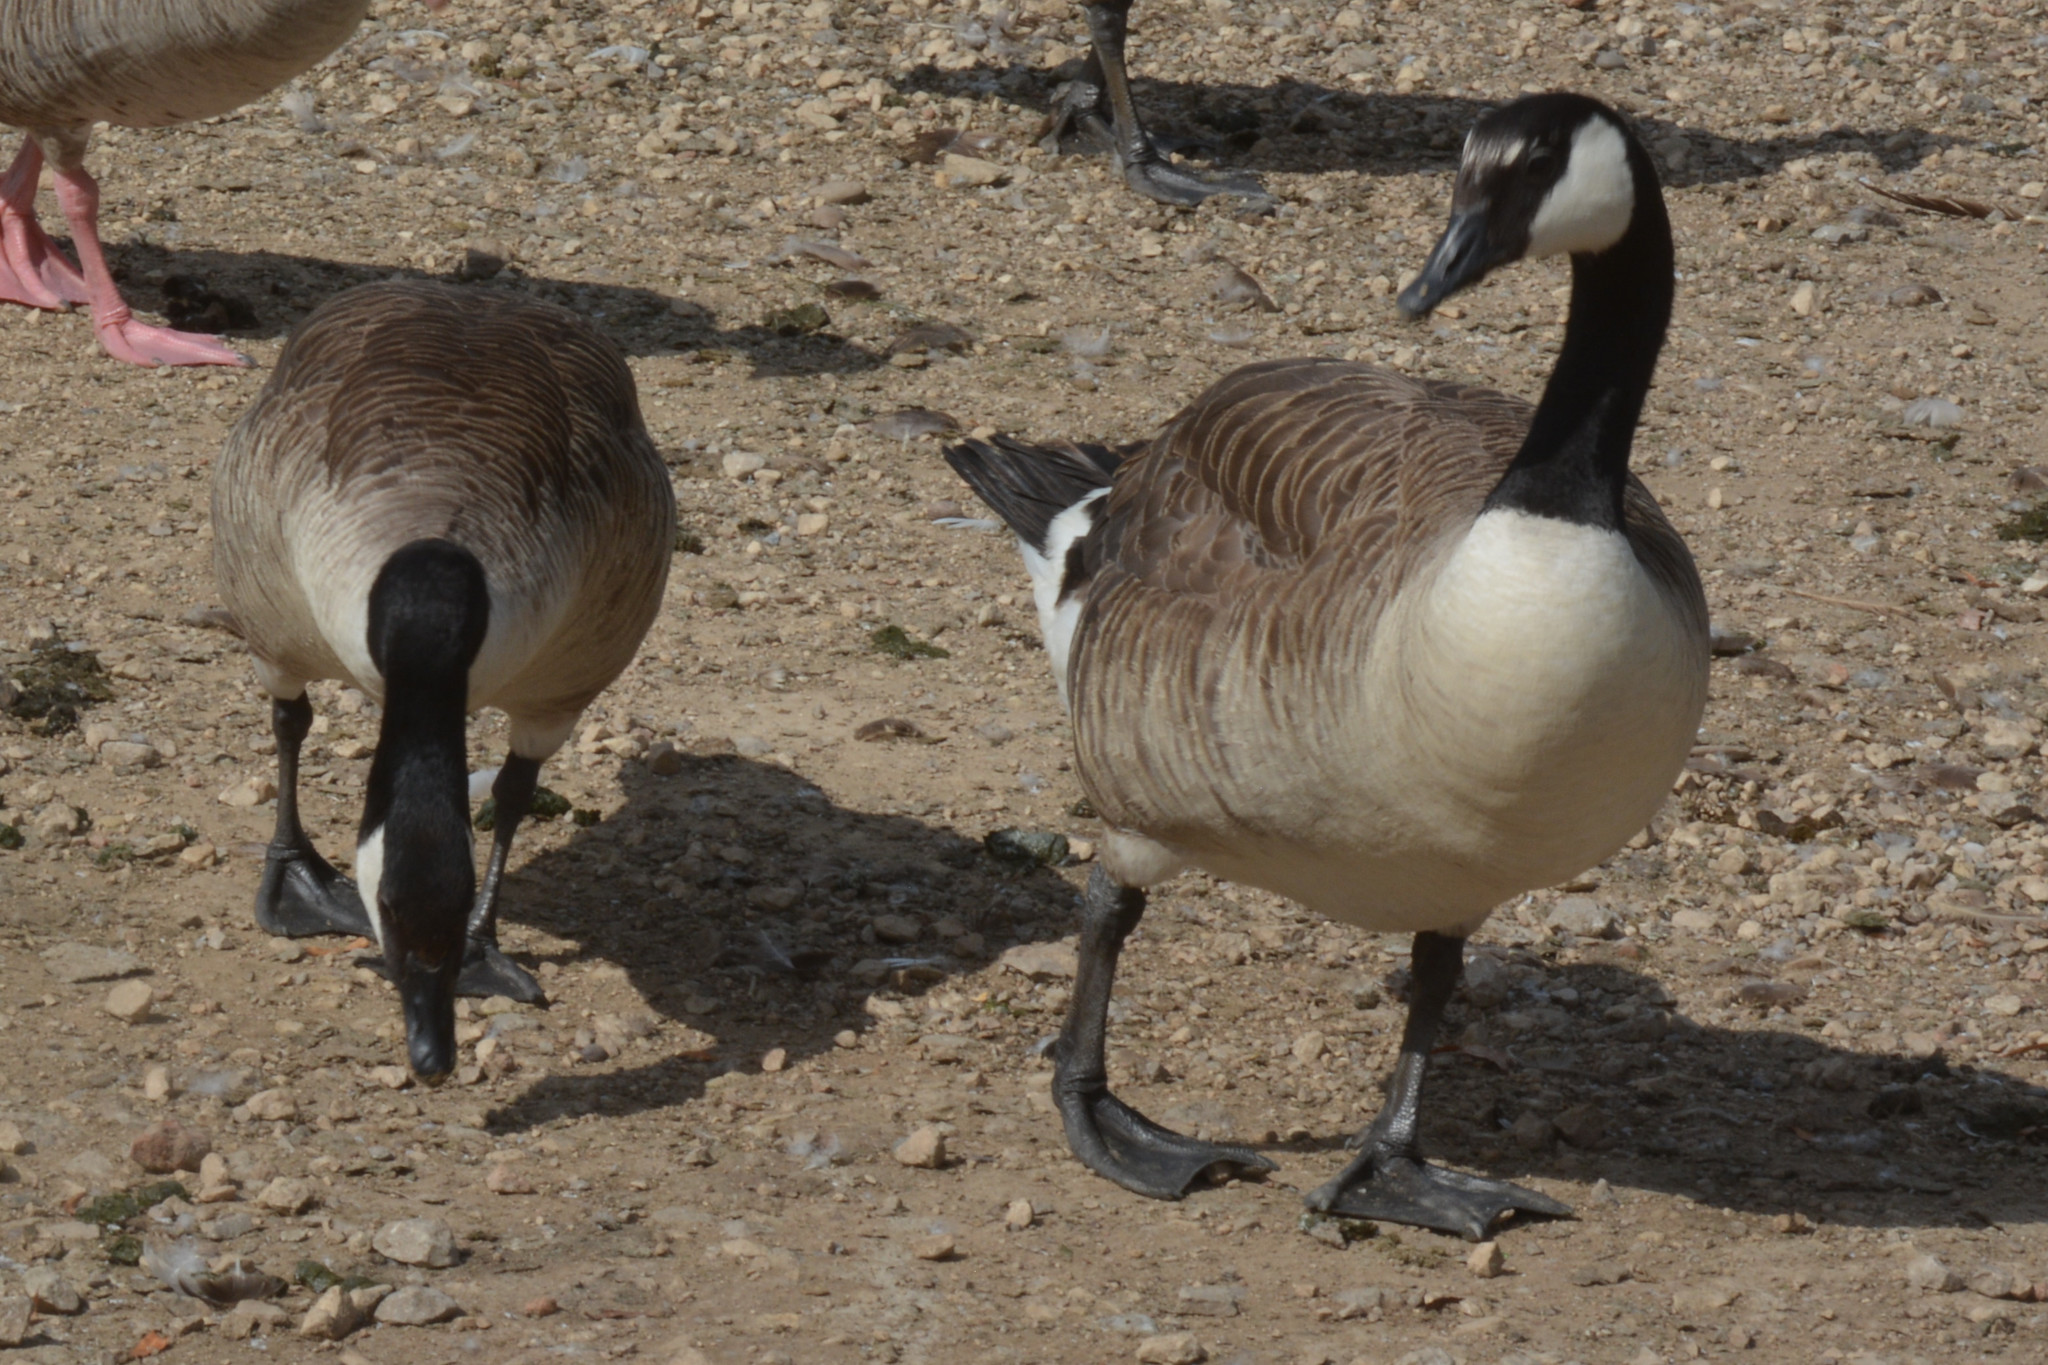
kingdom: Animalia
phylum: Chordata
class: Aves
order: Anseriformes
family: Anatidae
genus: Branta
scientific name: Branta canadensis
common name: Canada goose
